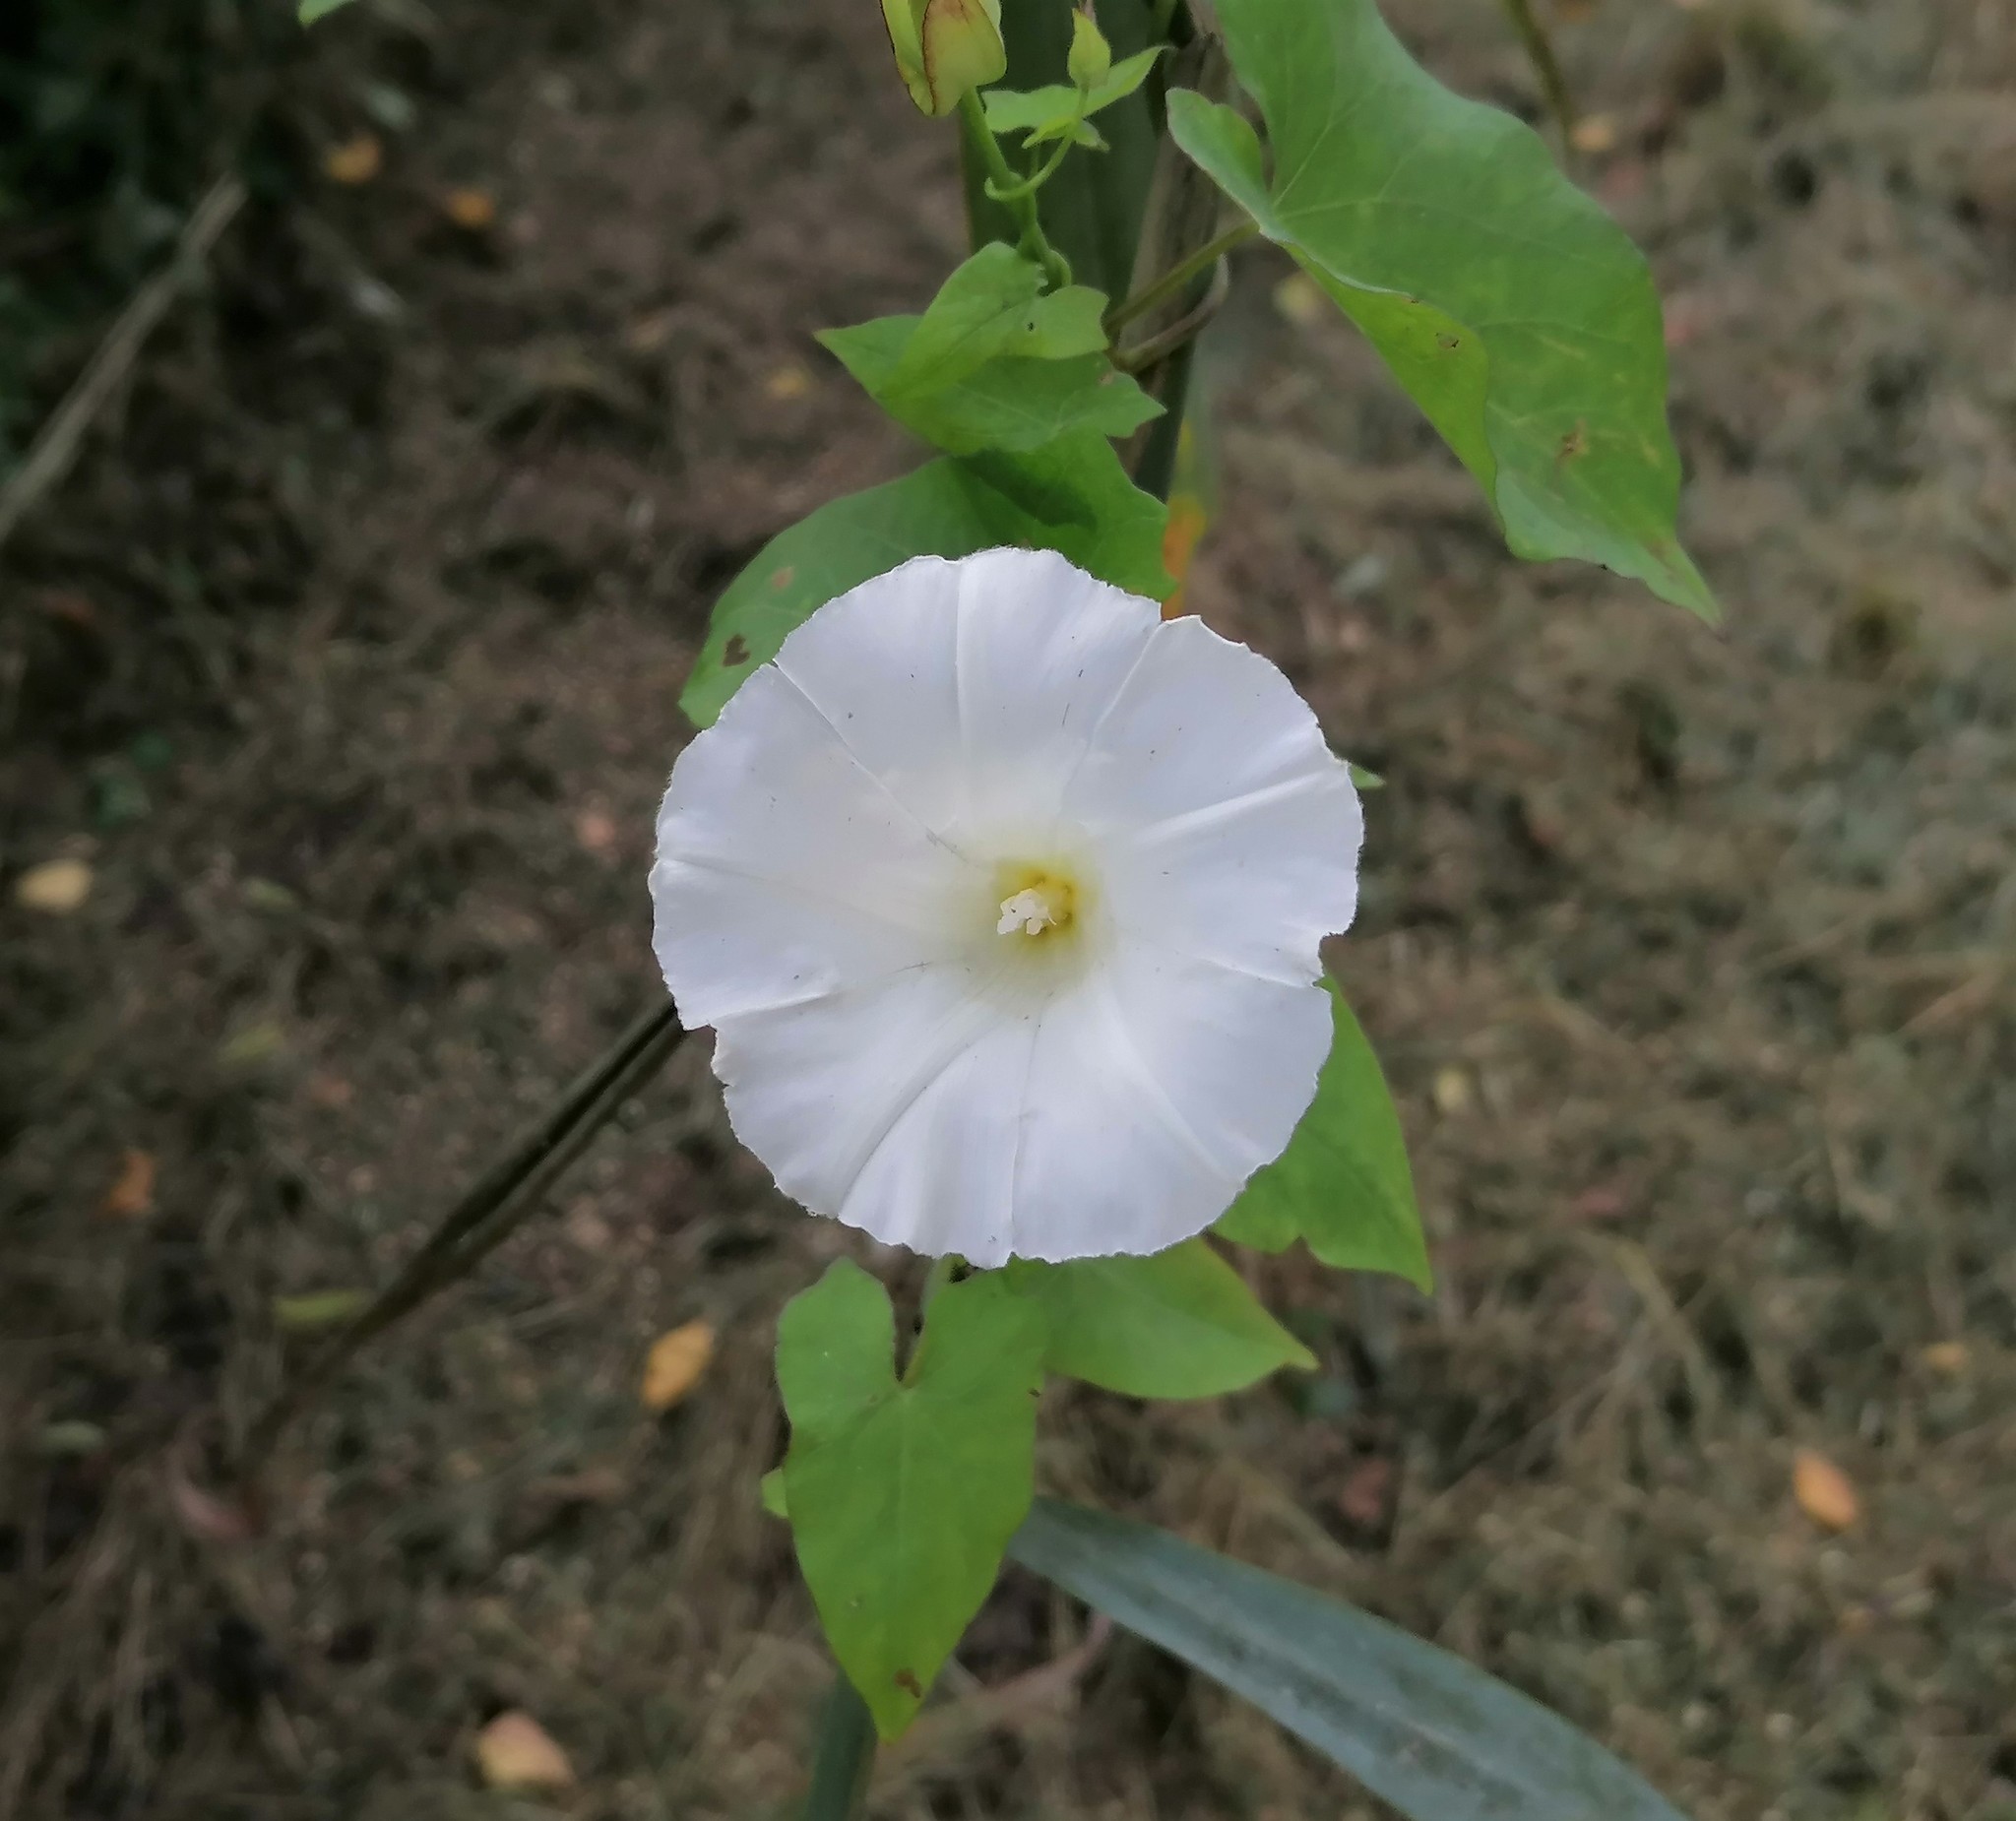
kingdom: Plantae
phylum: Tracheophyta
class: Magnoliopsida
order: Solanales
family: Convolvulaceae
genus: Calystegia
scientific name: Calystegia sepium
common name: Hedge bindweed
